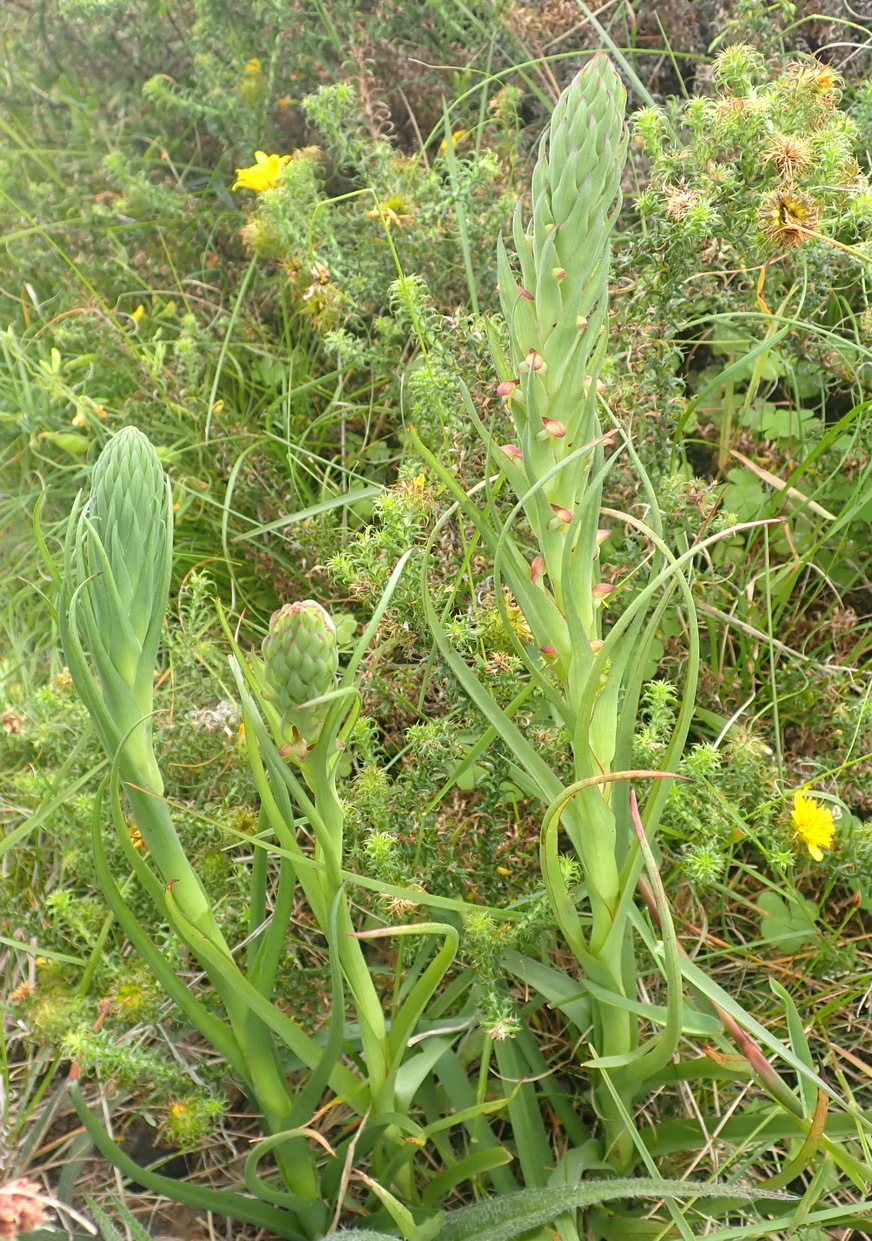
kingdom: Plantae
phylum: Tracheophyta
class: Liliopsida
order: Asparagales
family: Orchidaceae
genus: Disa
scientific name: Disa bracteata
